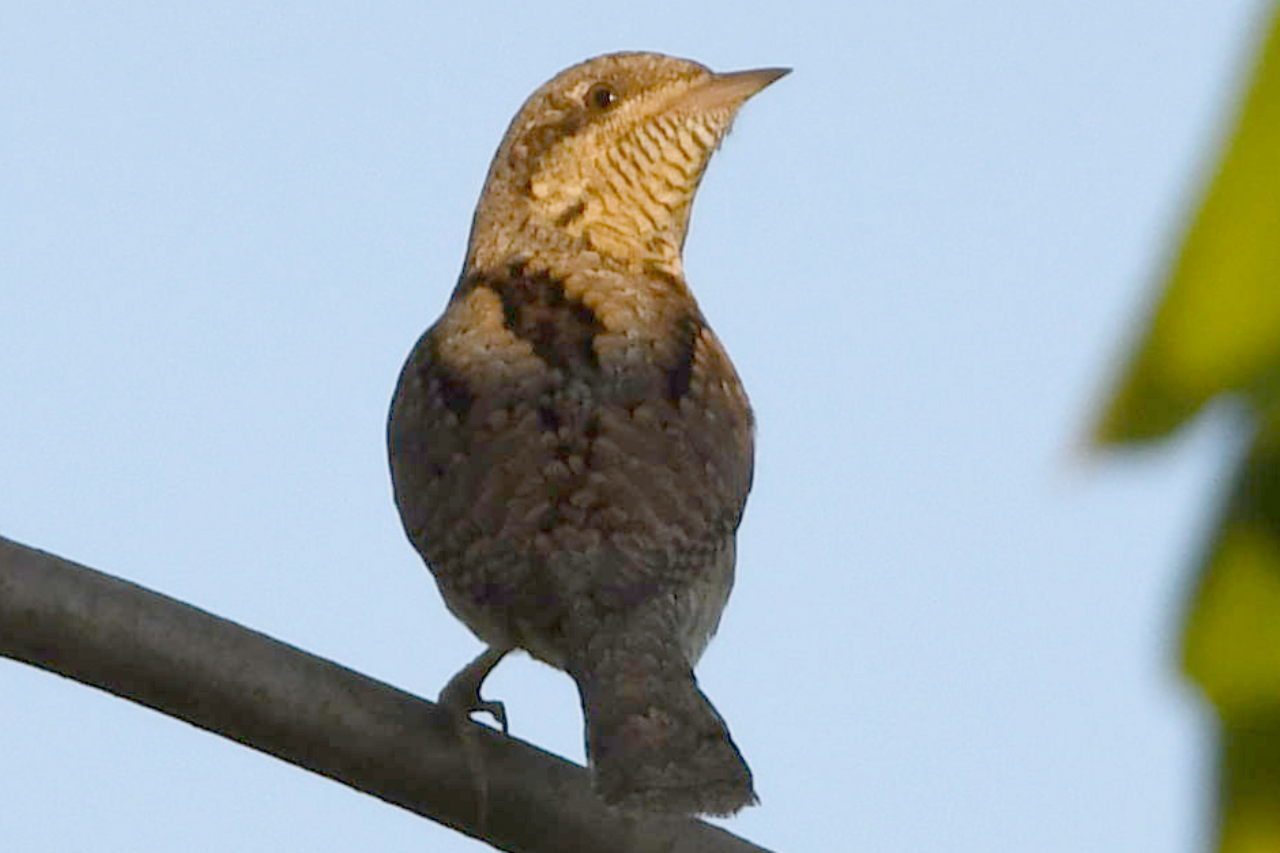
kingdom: Animalia
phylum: Chordata
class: Aves
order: Piciformes
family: Picidae
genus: Jynx
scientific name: Jynx torquilla
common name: Eurasian wryneck
